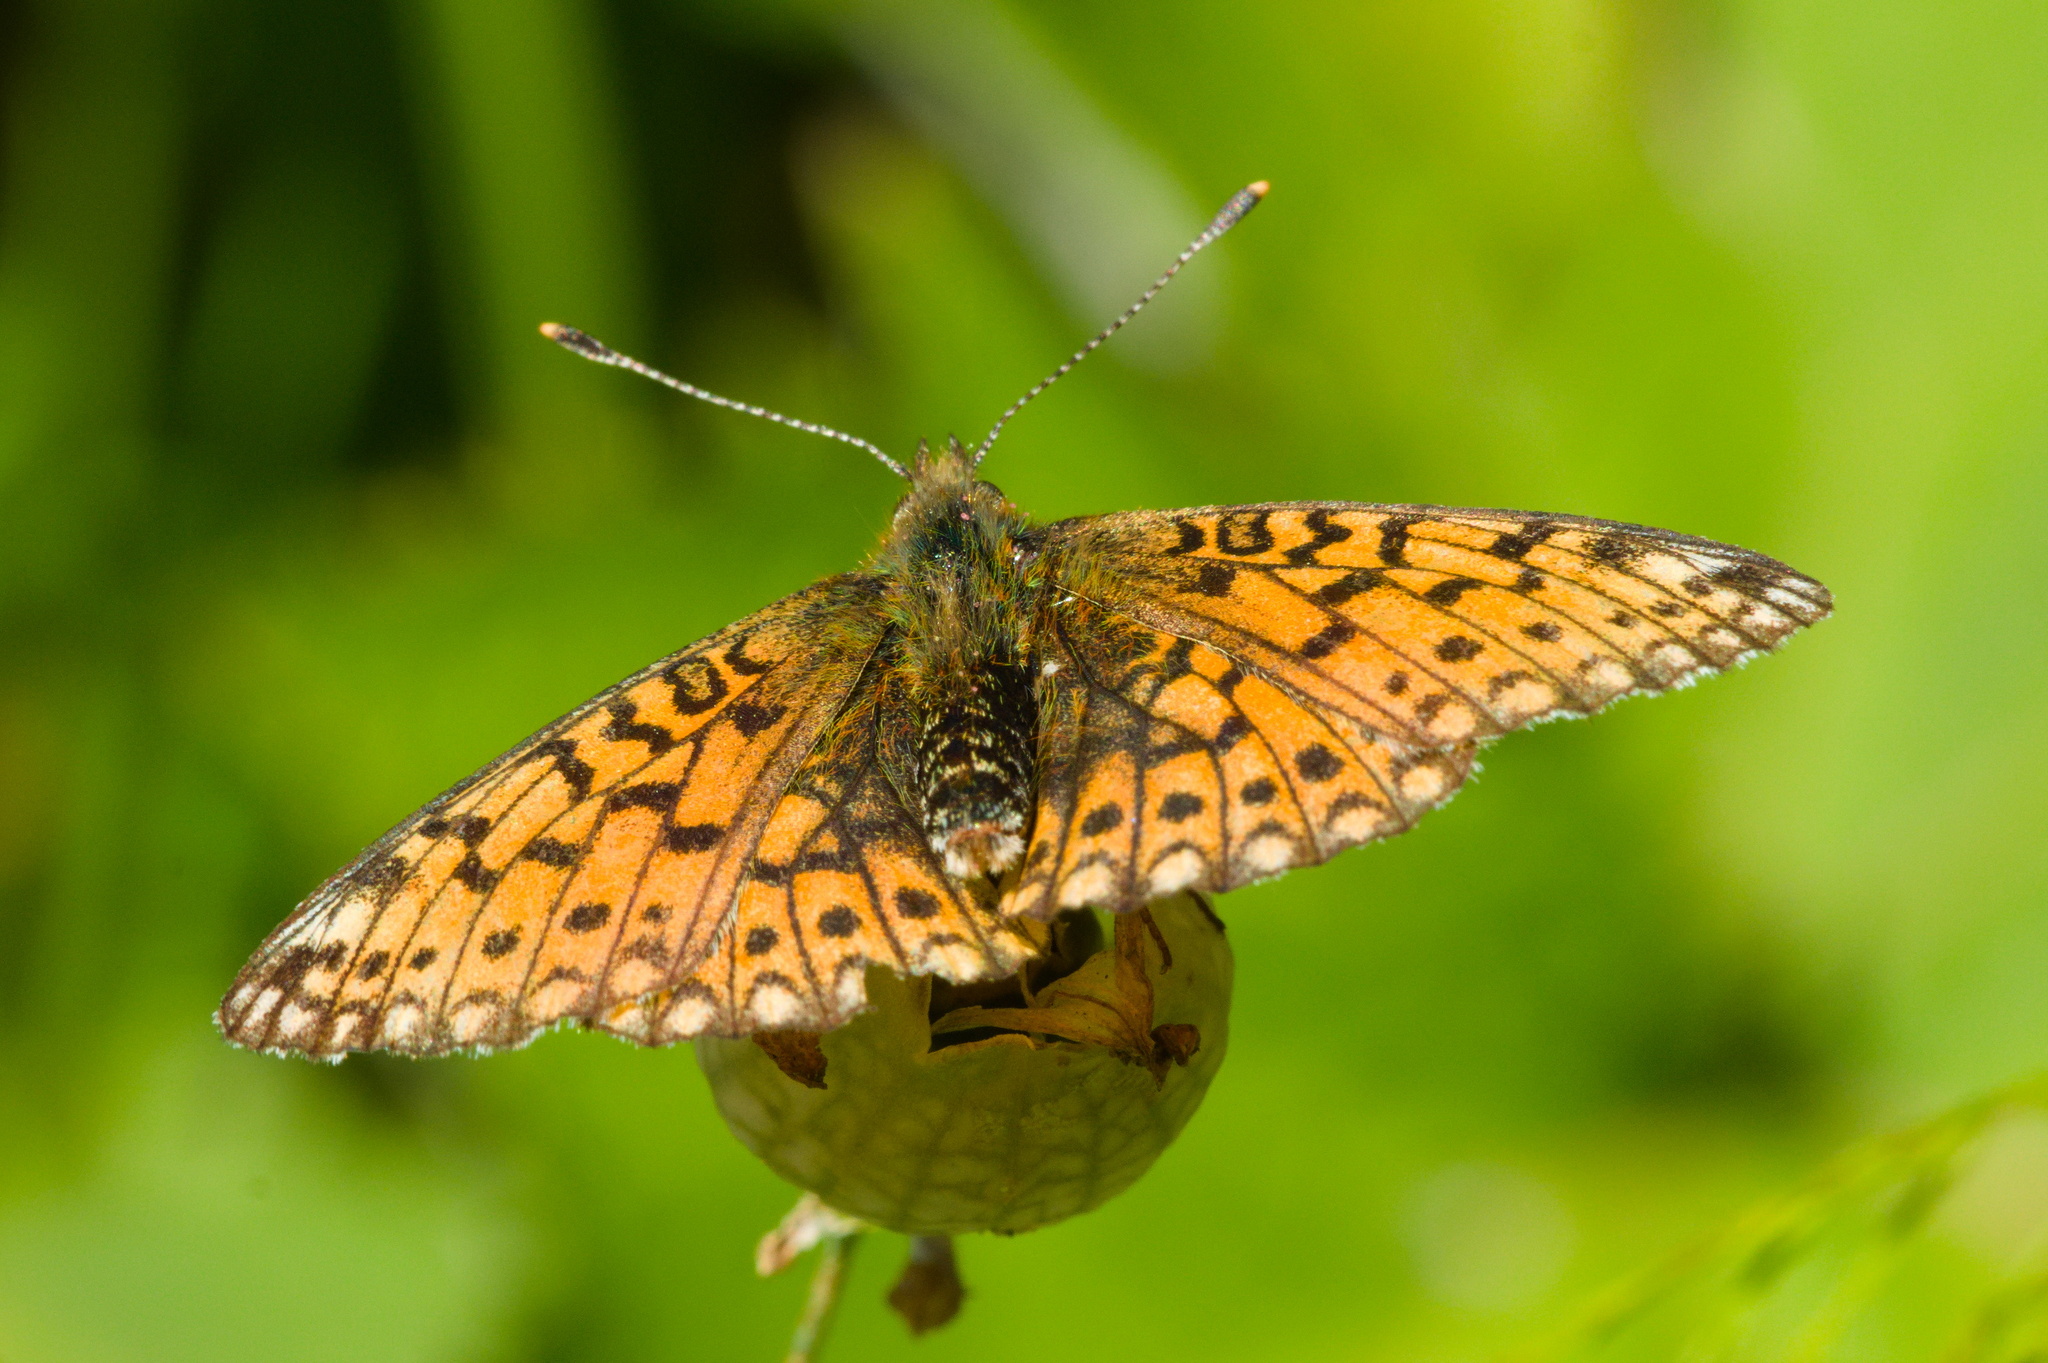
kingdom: Animalia
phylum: Arthropoda
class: Insecta
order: Lepidoptera
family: Nymphalidae
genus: Boloria
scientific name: Boloria selene
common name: Small pearl-bordered fritillary
